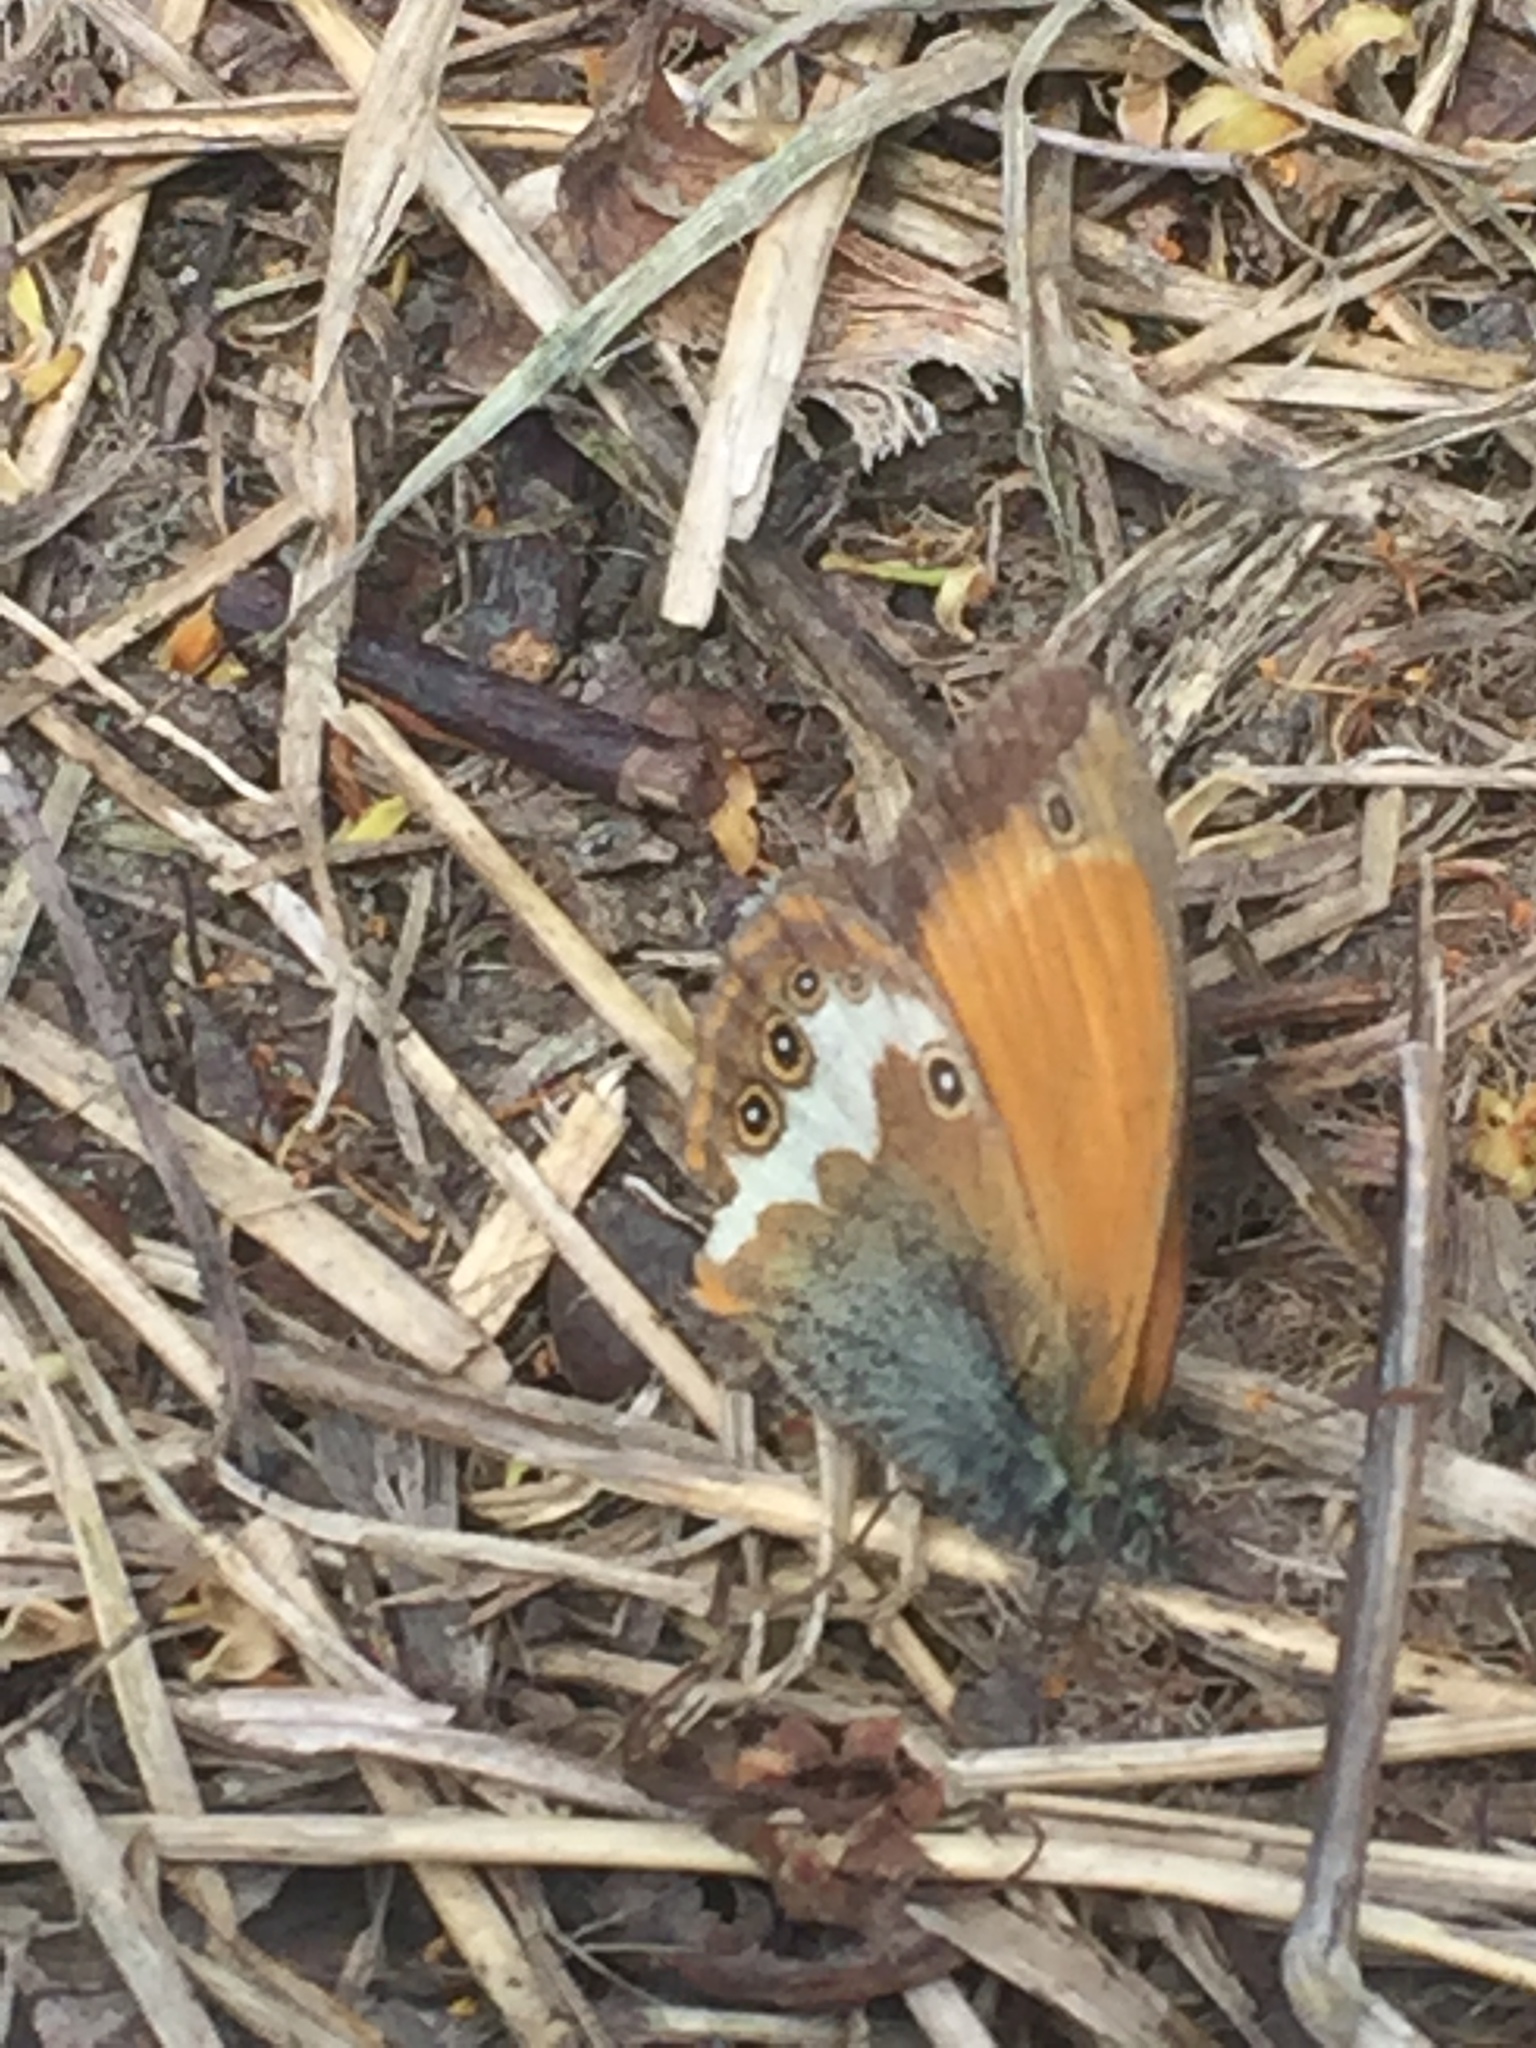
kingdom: Animalia
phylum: Arthropoda
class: Insecta
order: Lepidoptera
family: Nymphalidae
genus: Coenonympha
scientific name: Coenonympha arcania
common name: Pearly heath
